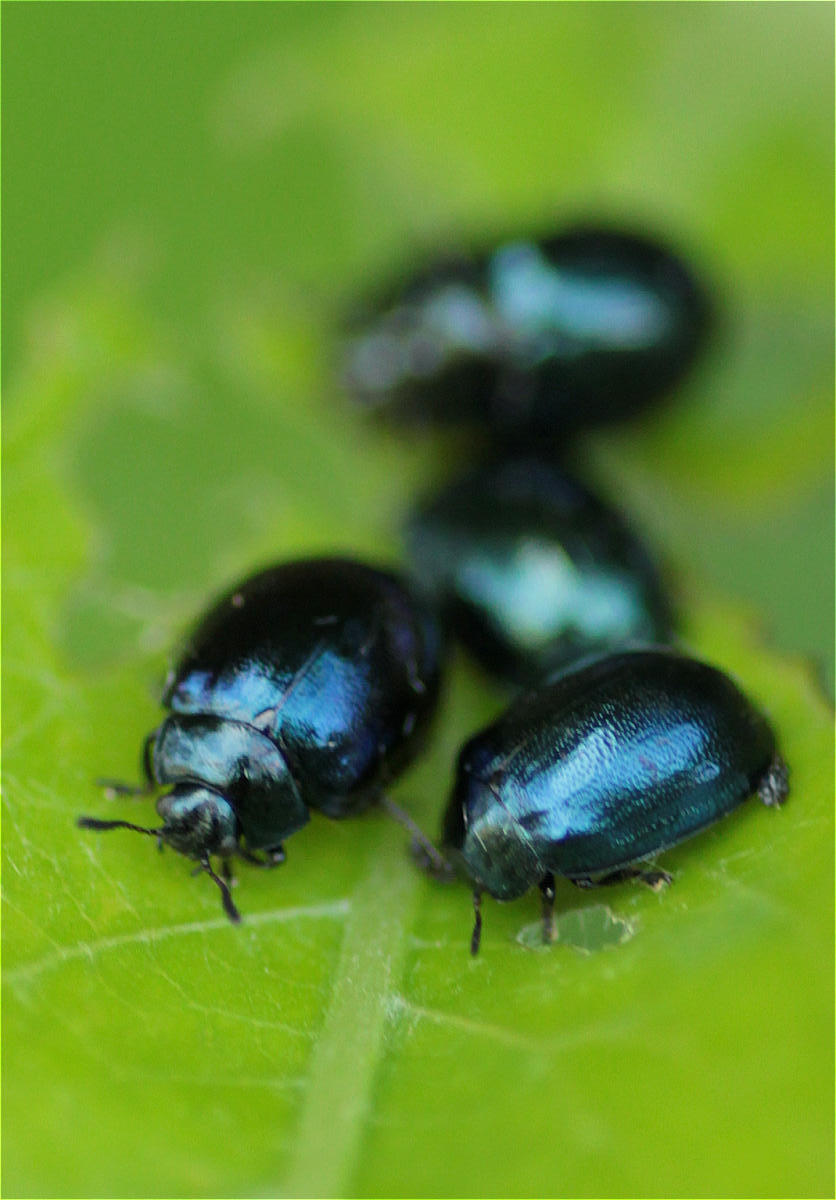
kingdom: Animalia
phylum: Arthropoda
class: Insecta
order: Coleoptera
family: Chrysomelidae
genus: Plagiodera
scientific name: Plagiodera versicolora
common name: Imported willow leaf beetle
